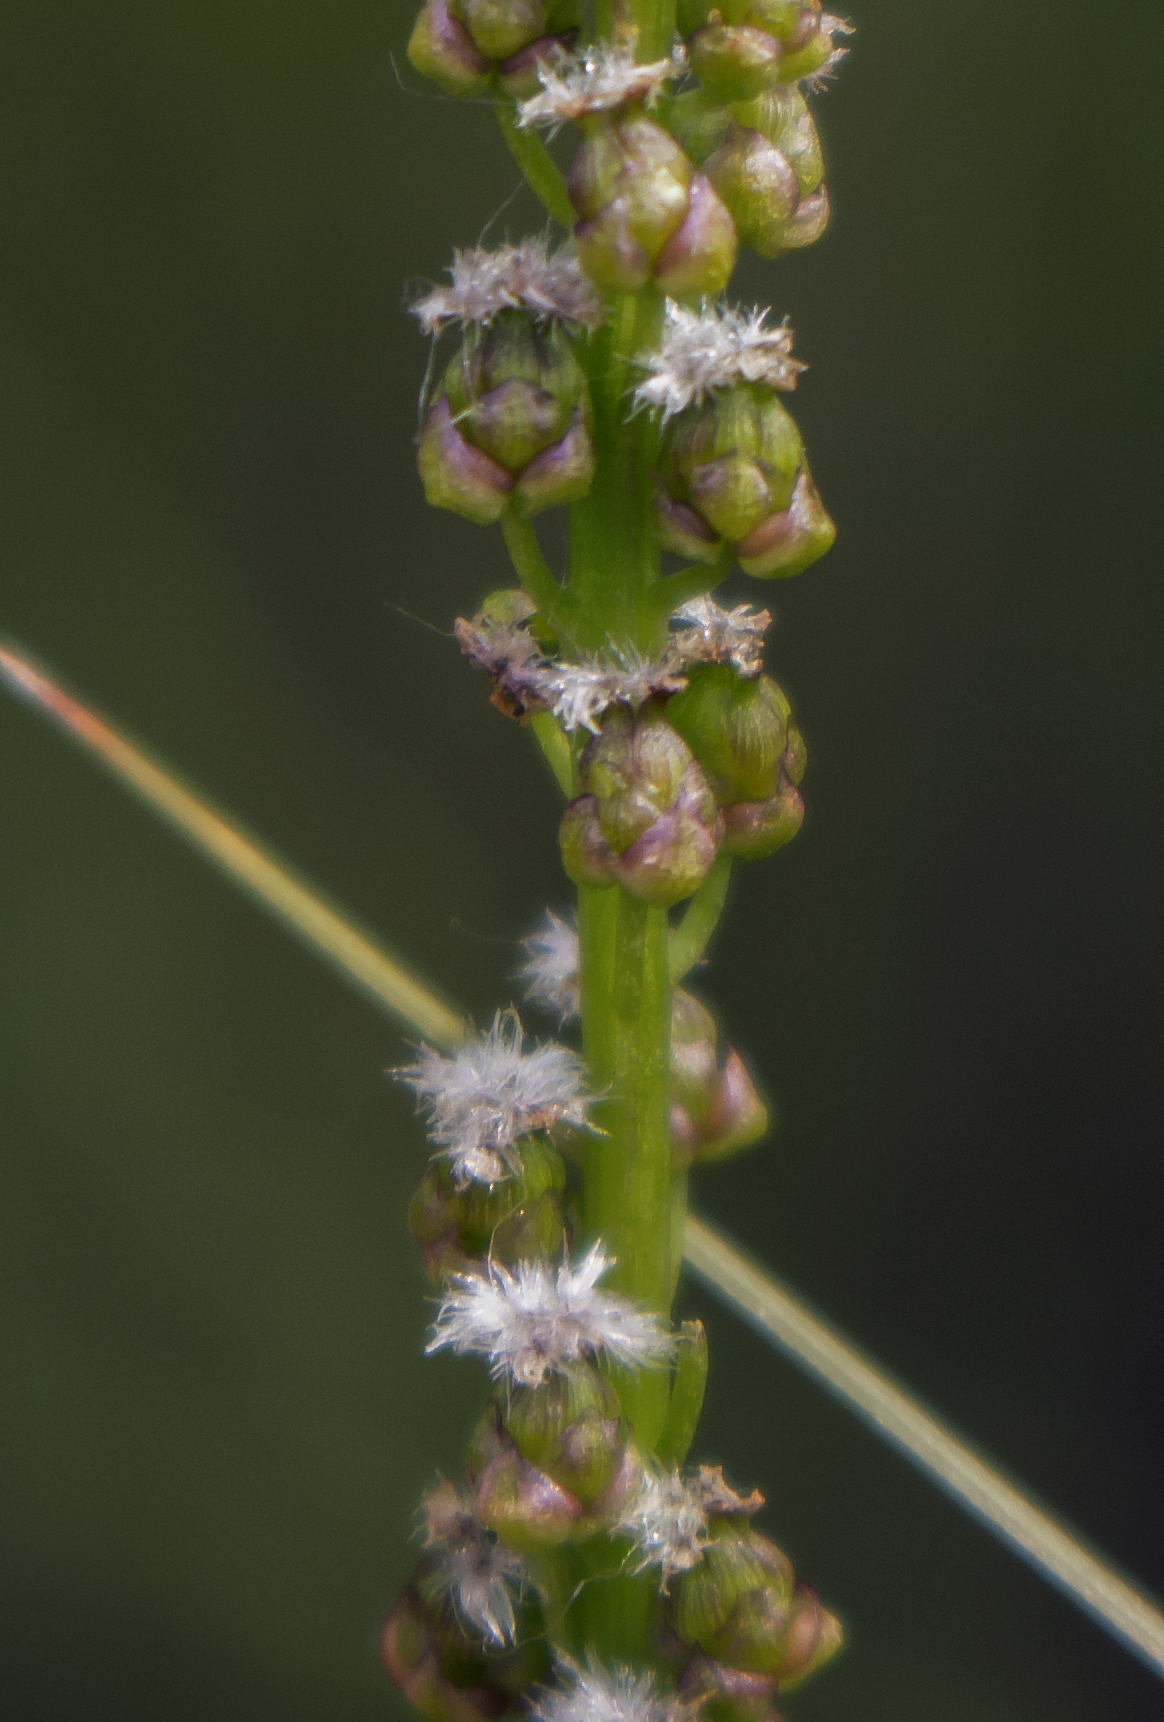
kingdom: Plantae
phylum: Tracheophyta
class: Liliopsida
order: Alismatales
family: Juncaginaceae
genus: Triglochin
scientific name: Triglochin maritima
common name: Sea arrowgrass
